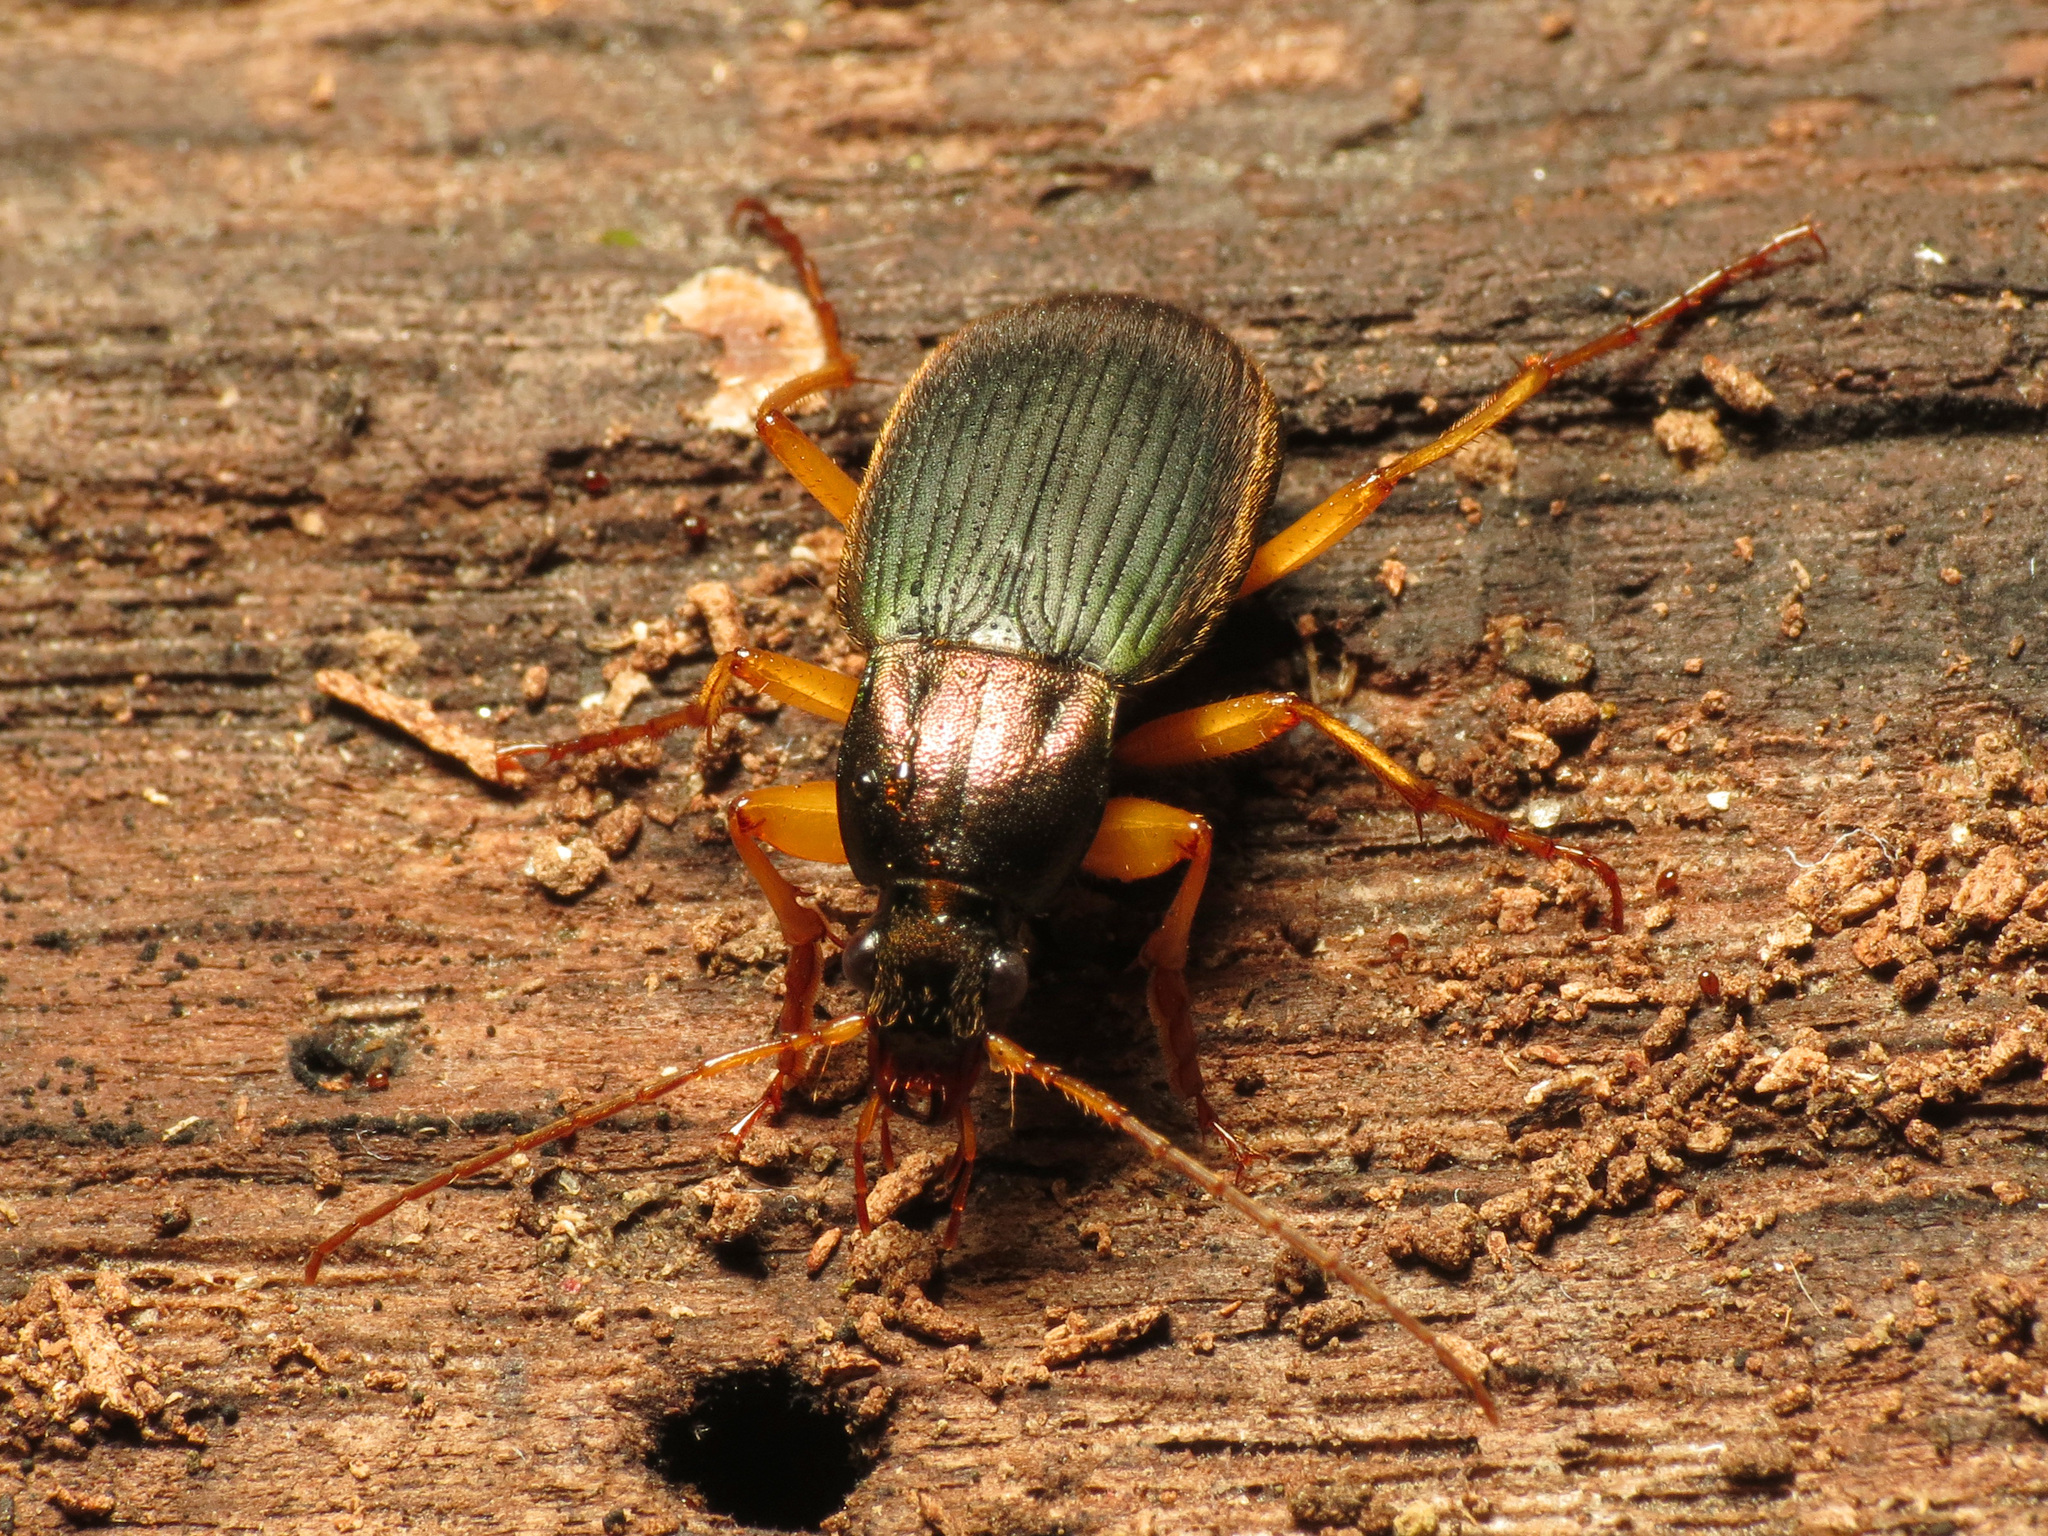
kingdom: Animalia
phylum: Arthropoda
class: Insecta
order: Coleoptera
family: Carabidae
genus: Chlaenius
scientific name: Chlaenius aestivus
